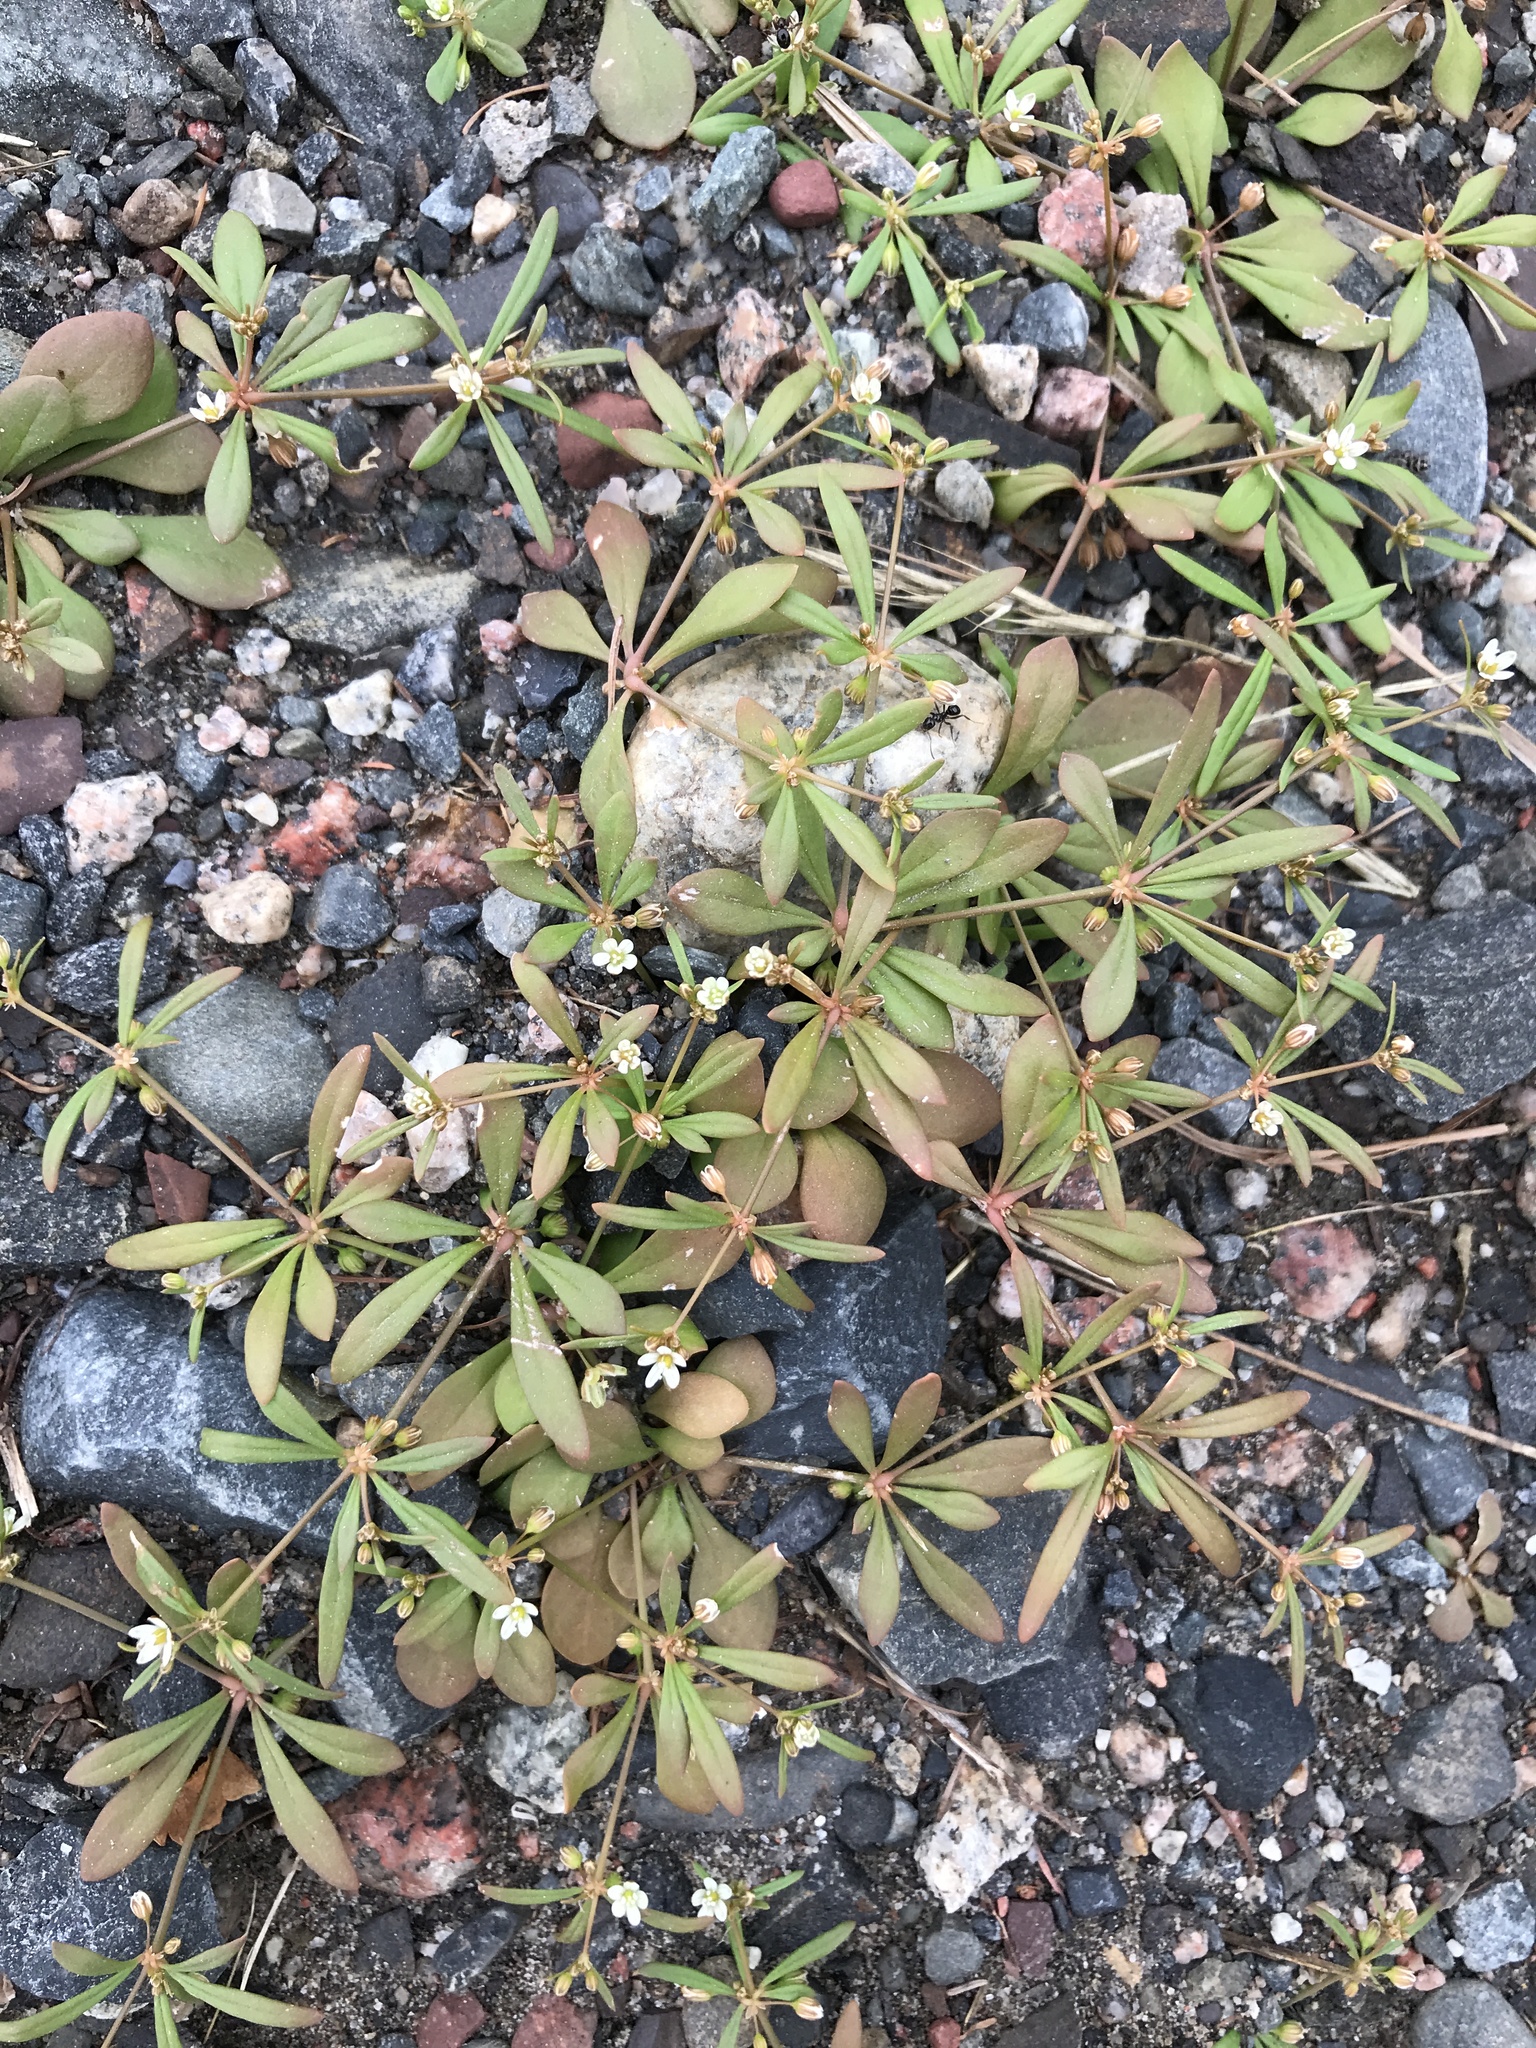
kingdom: Plantae
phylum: Tracheophyta
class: Magnoliopsida
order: Caryophyllales
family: Molluginaceae
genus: Mollugo
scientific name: Mollugo verticillata
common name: Green carpetweed
